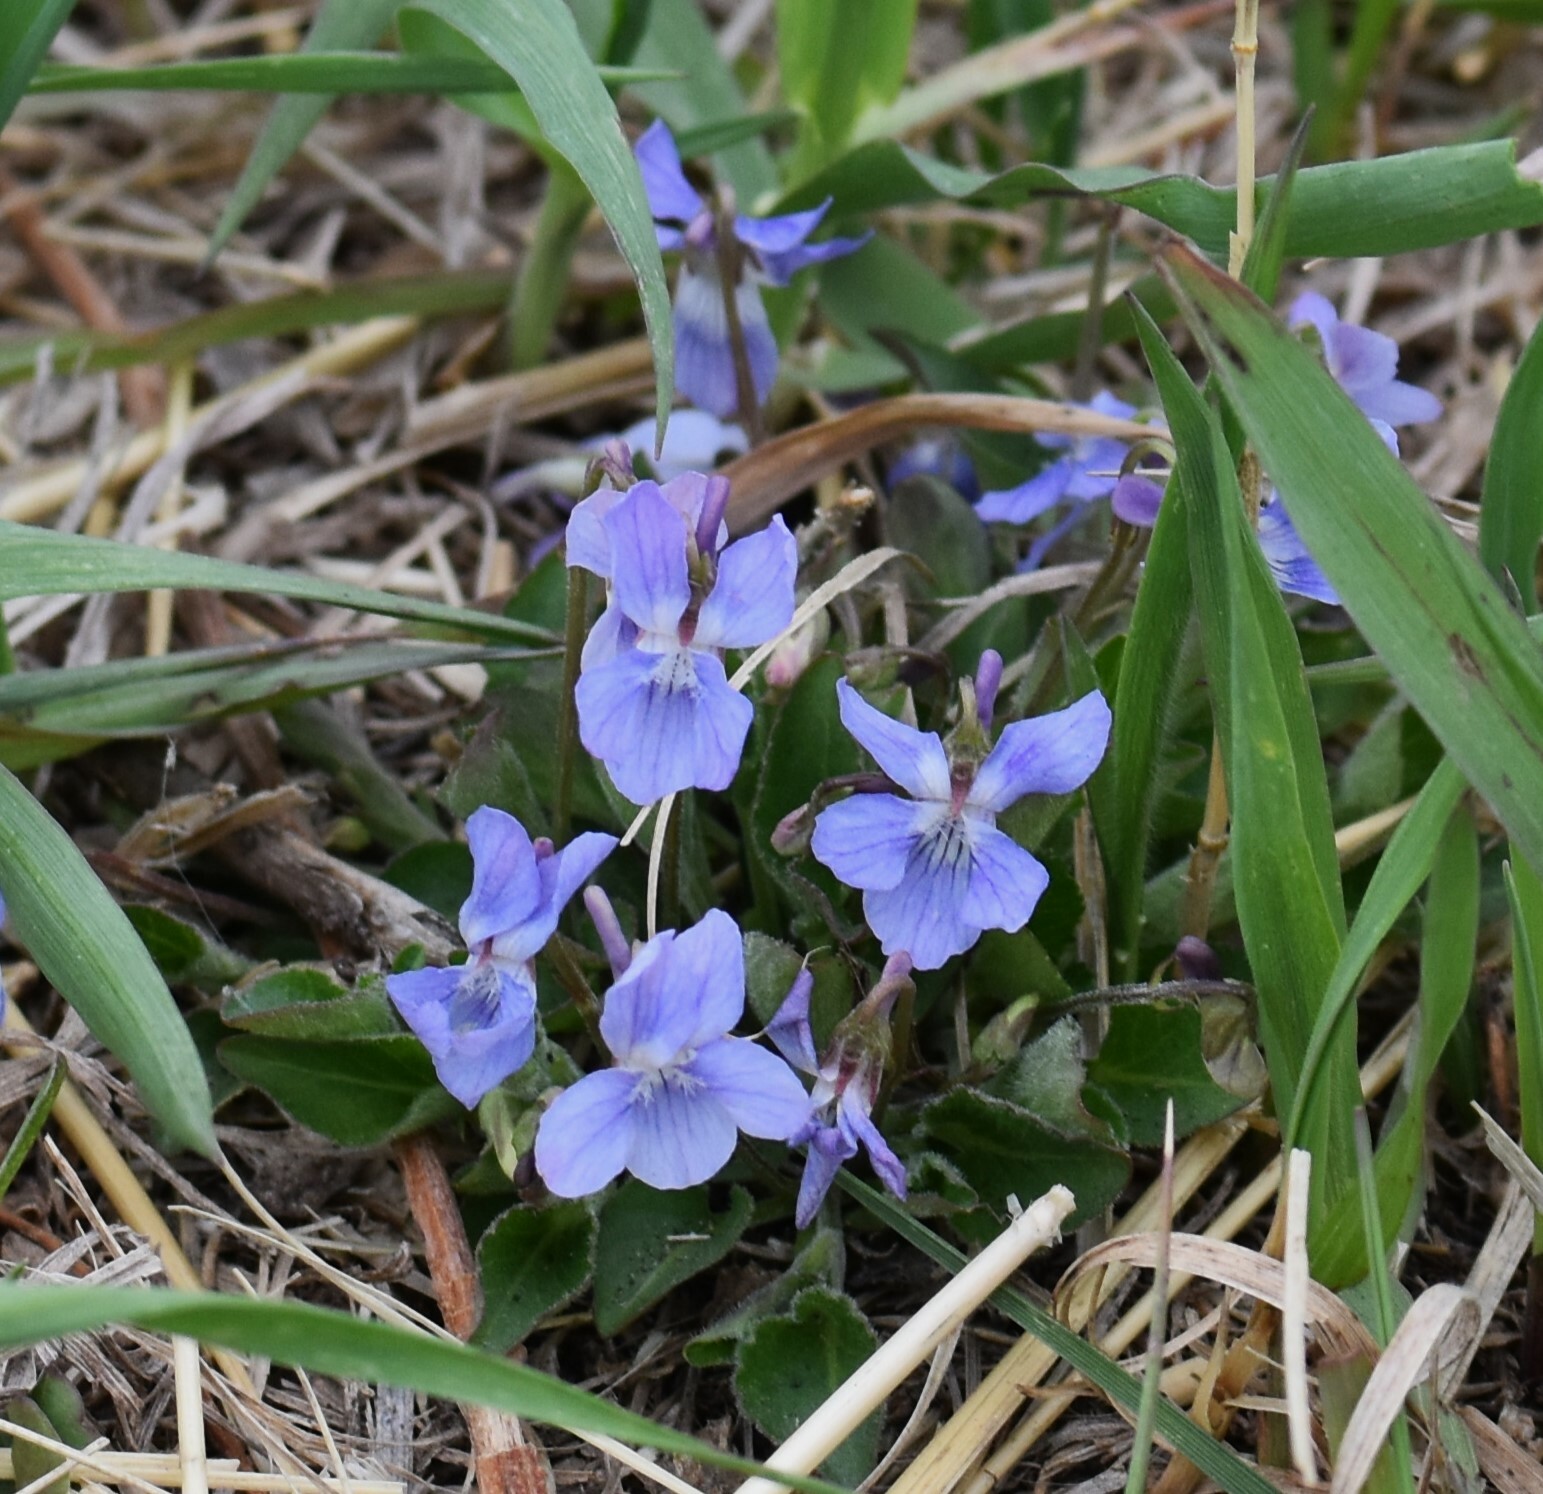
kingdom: Plantae
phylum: Tracheophyta
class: Magnoliopsida
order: Malpighiales
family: Violaceae
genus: Viola
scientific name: Viola adunca
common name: Sand violet
